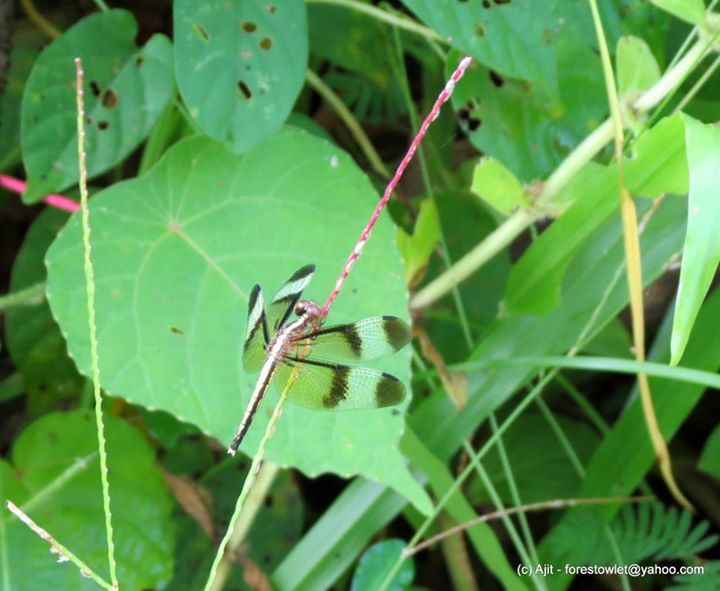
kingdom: Animalia
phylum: Arthropoda
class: Insecta
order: Odonata
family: Libellulidae
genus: Neurothemis
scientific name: Neurothemis tullia
